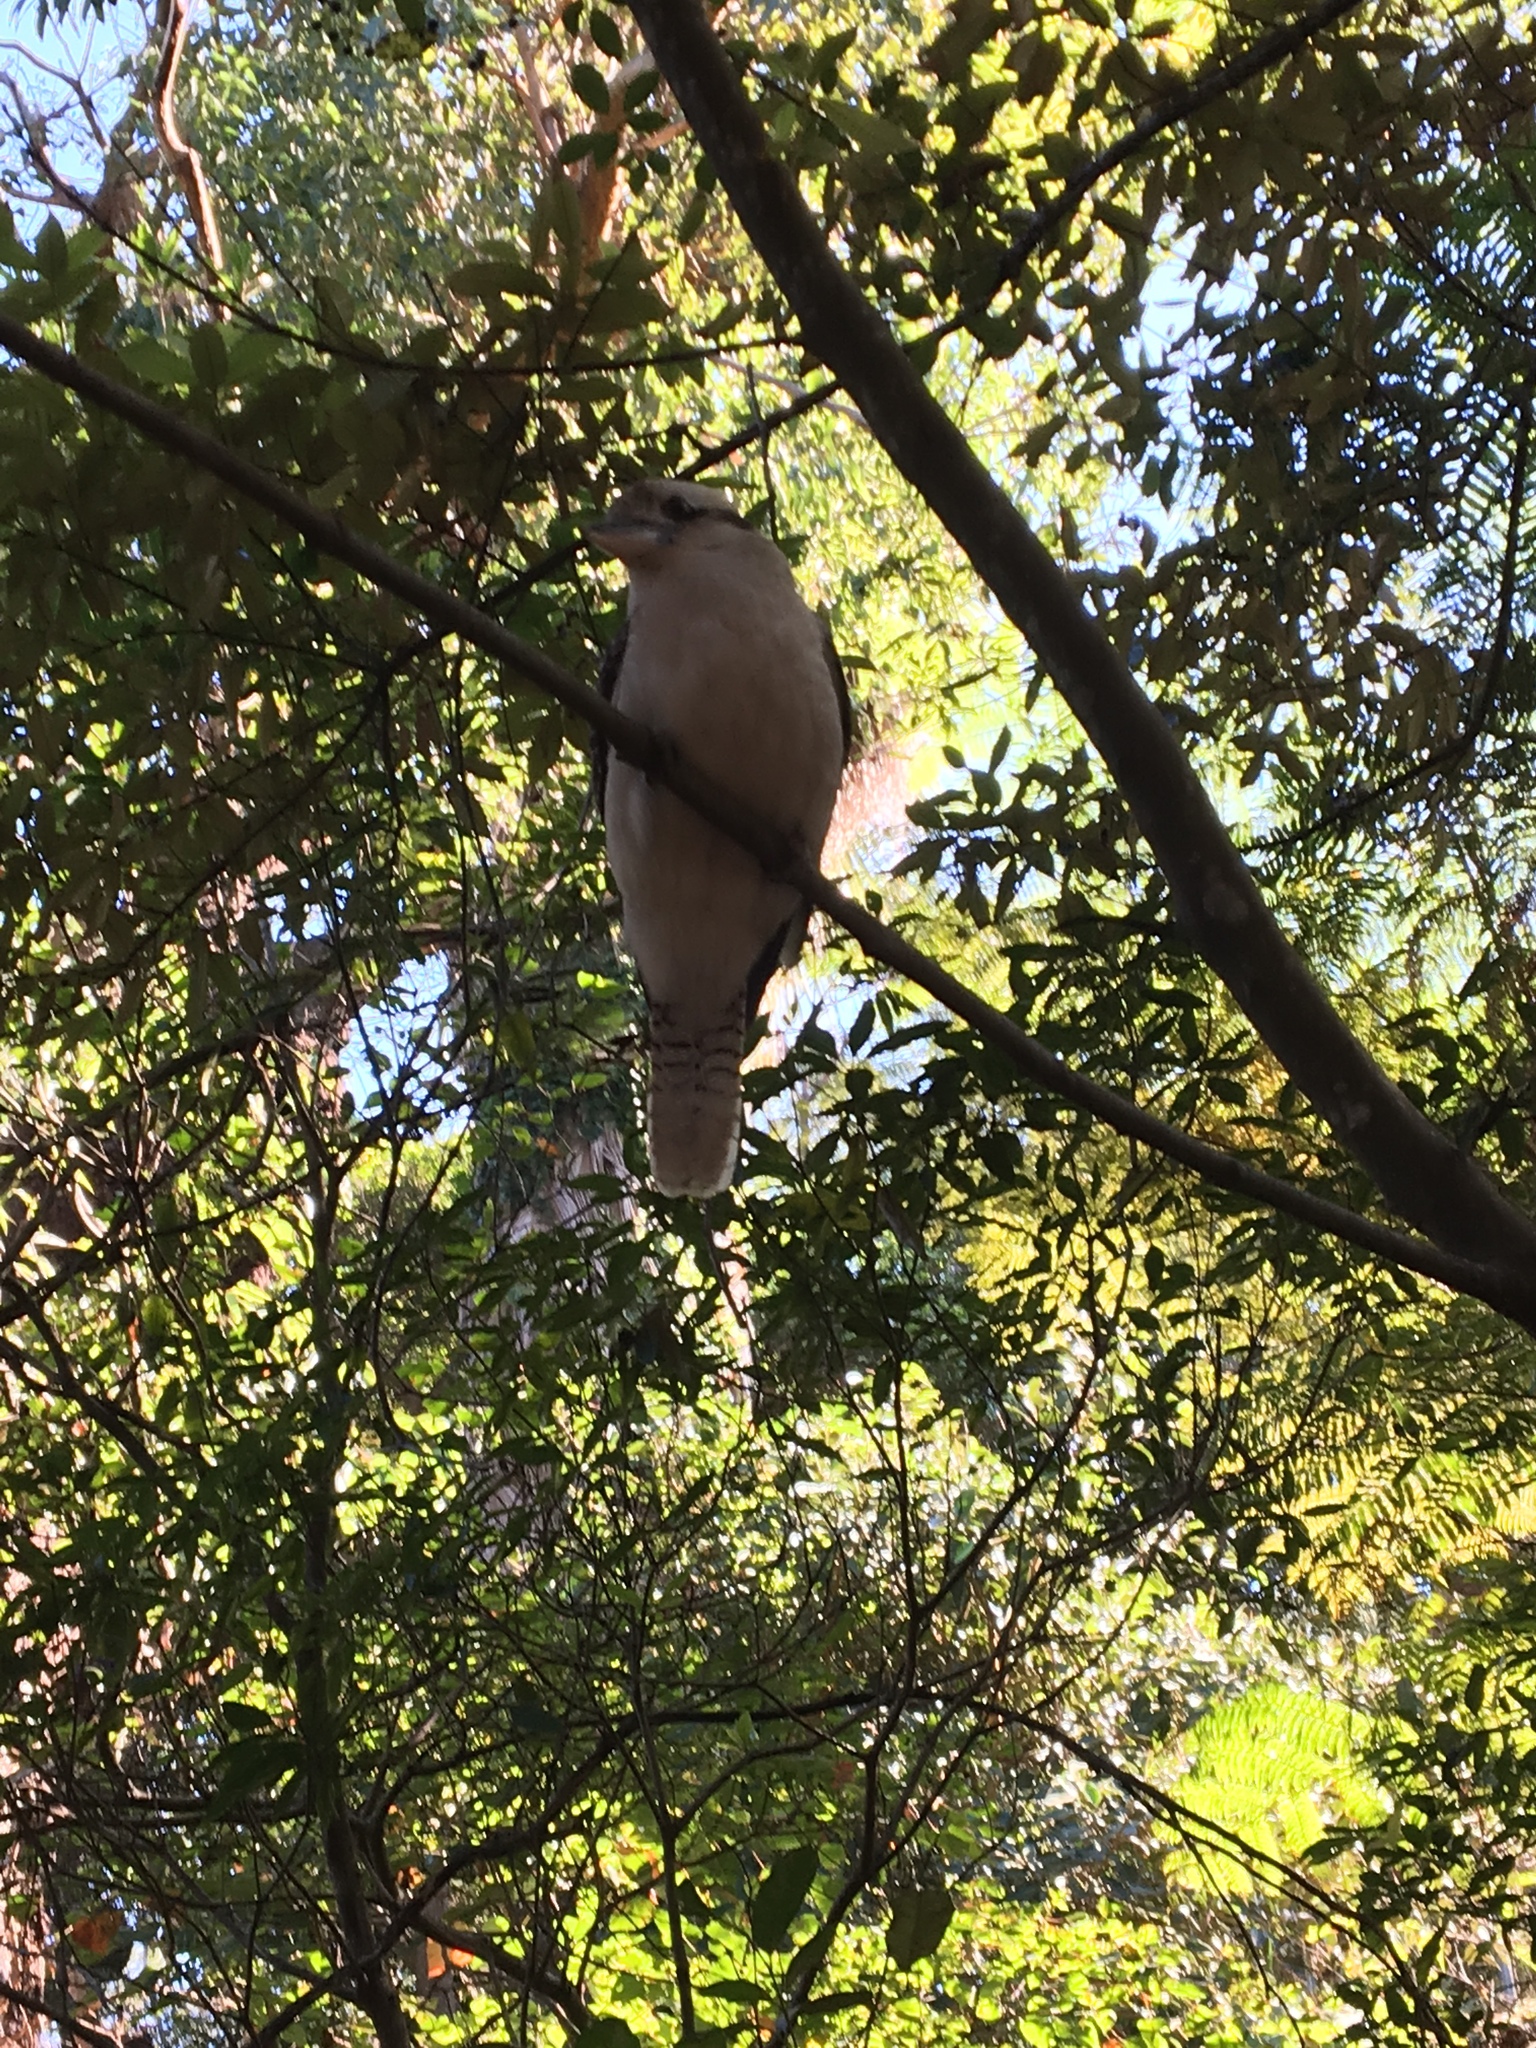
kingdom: Animalia
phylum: Chordata
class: Aves
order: Coraciiformes
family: Alcedinidae
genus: Dacelo
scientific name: Dacelo novaeguineae
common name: Laughing kookaburra
